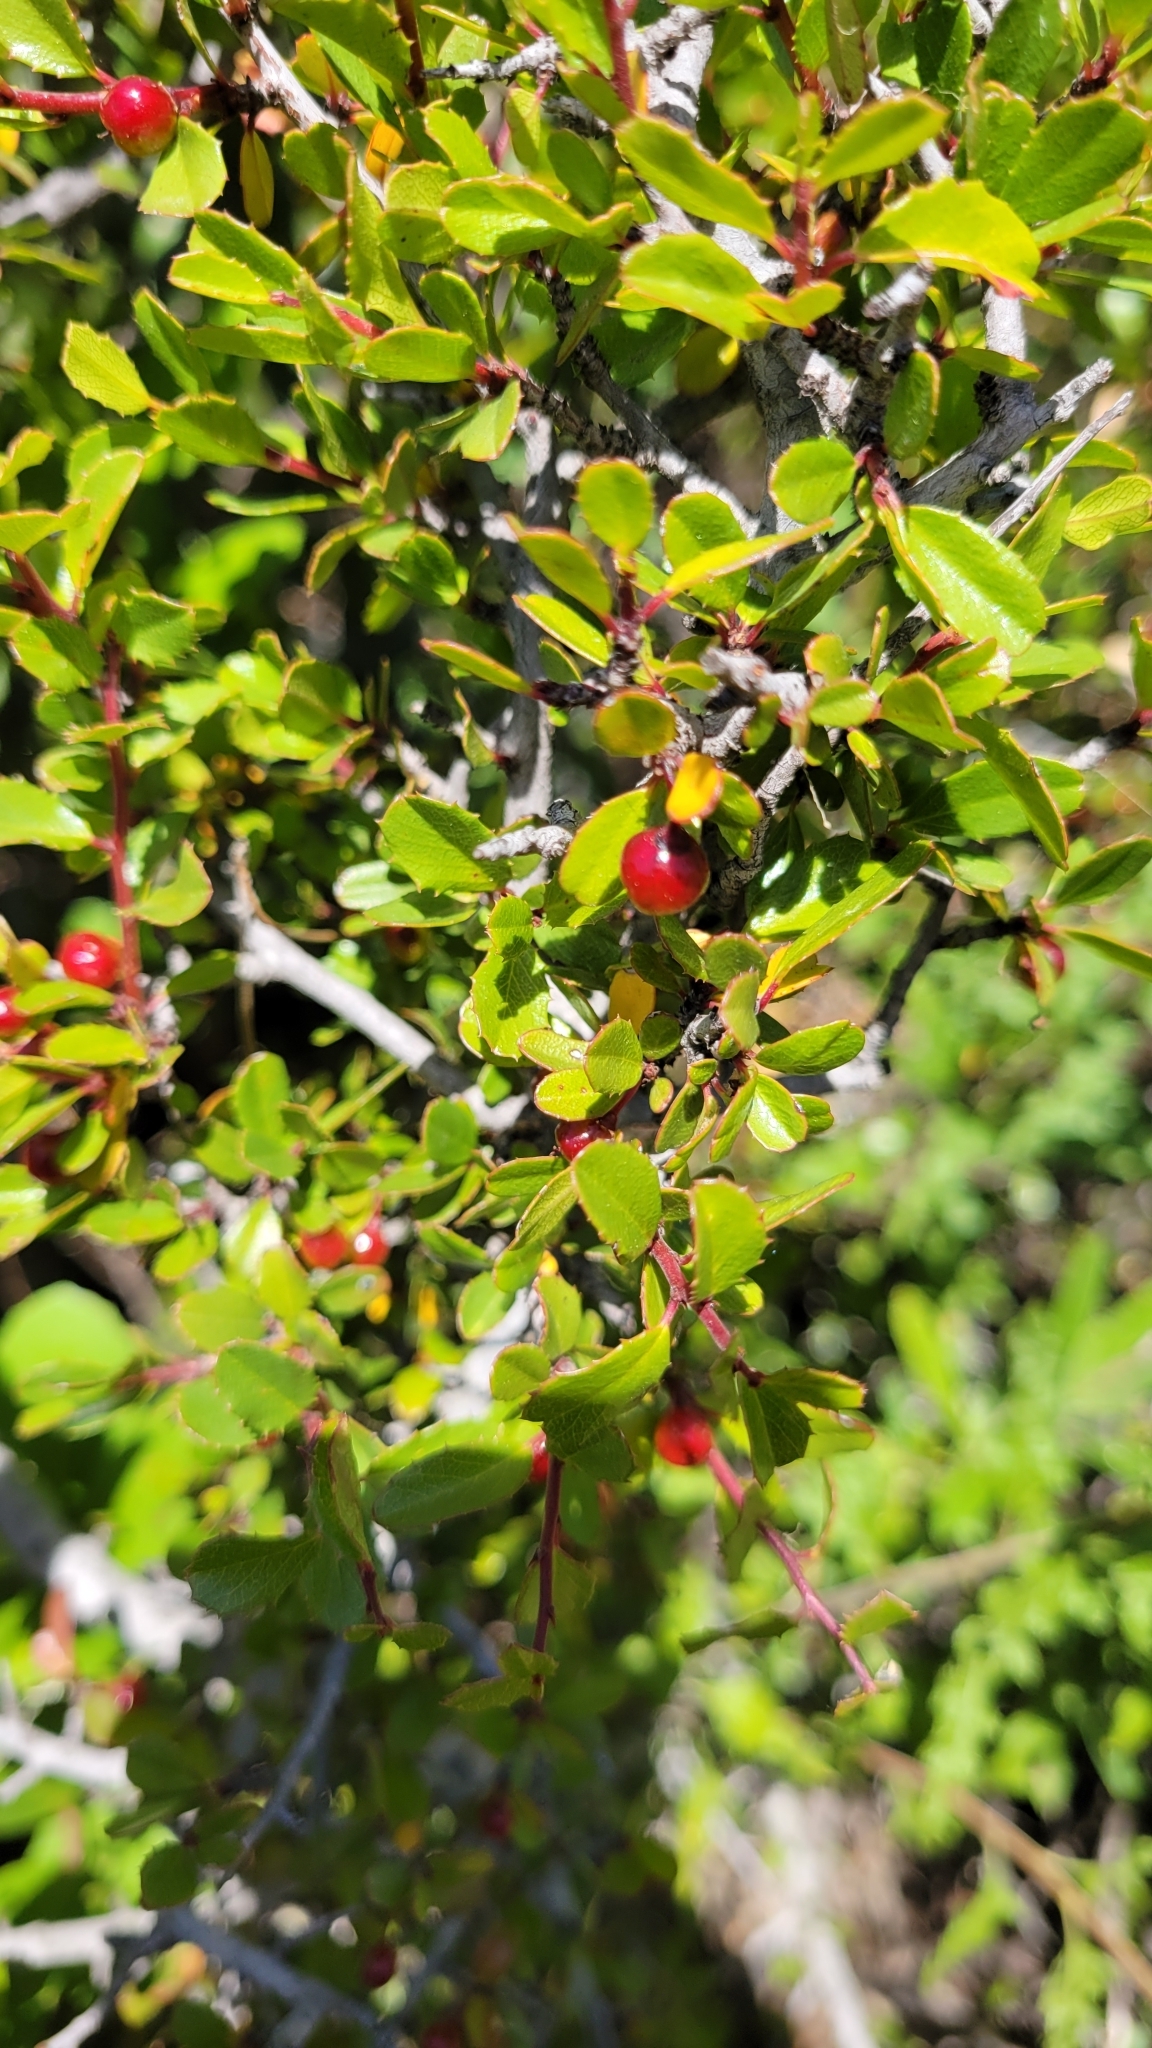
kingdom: Plantae
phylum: Tracheophyta
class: Magnoliopsida
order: Rosales
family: Rhamnaceae
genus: Endotropis
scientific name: Endotropis crocea
